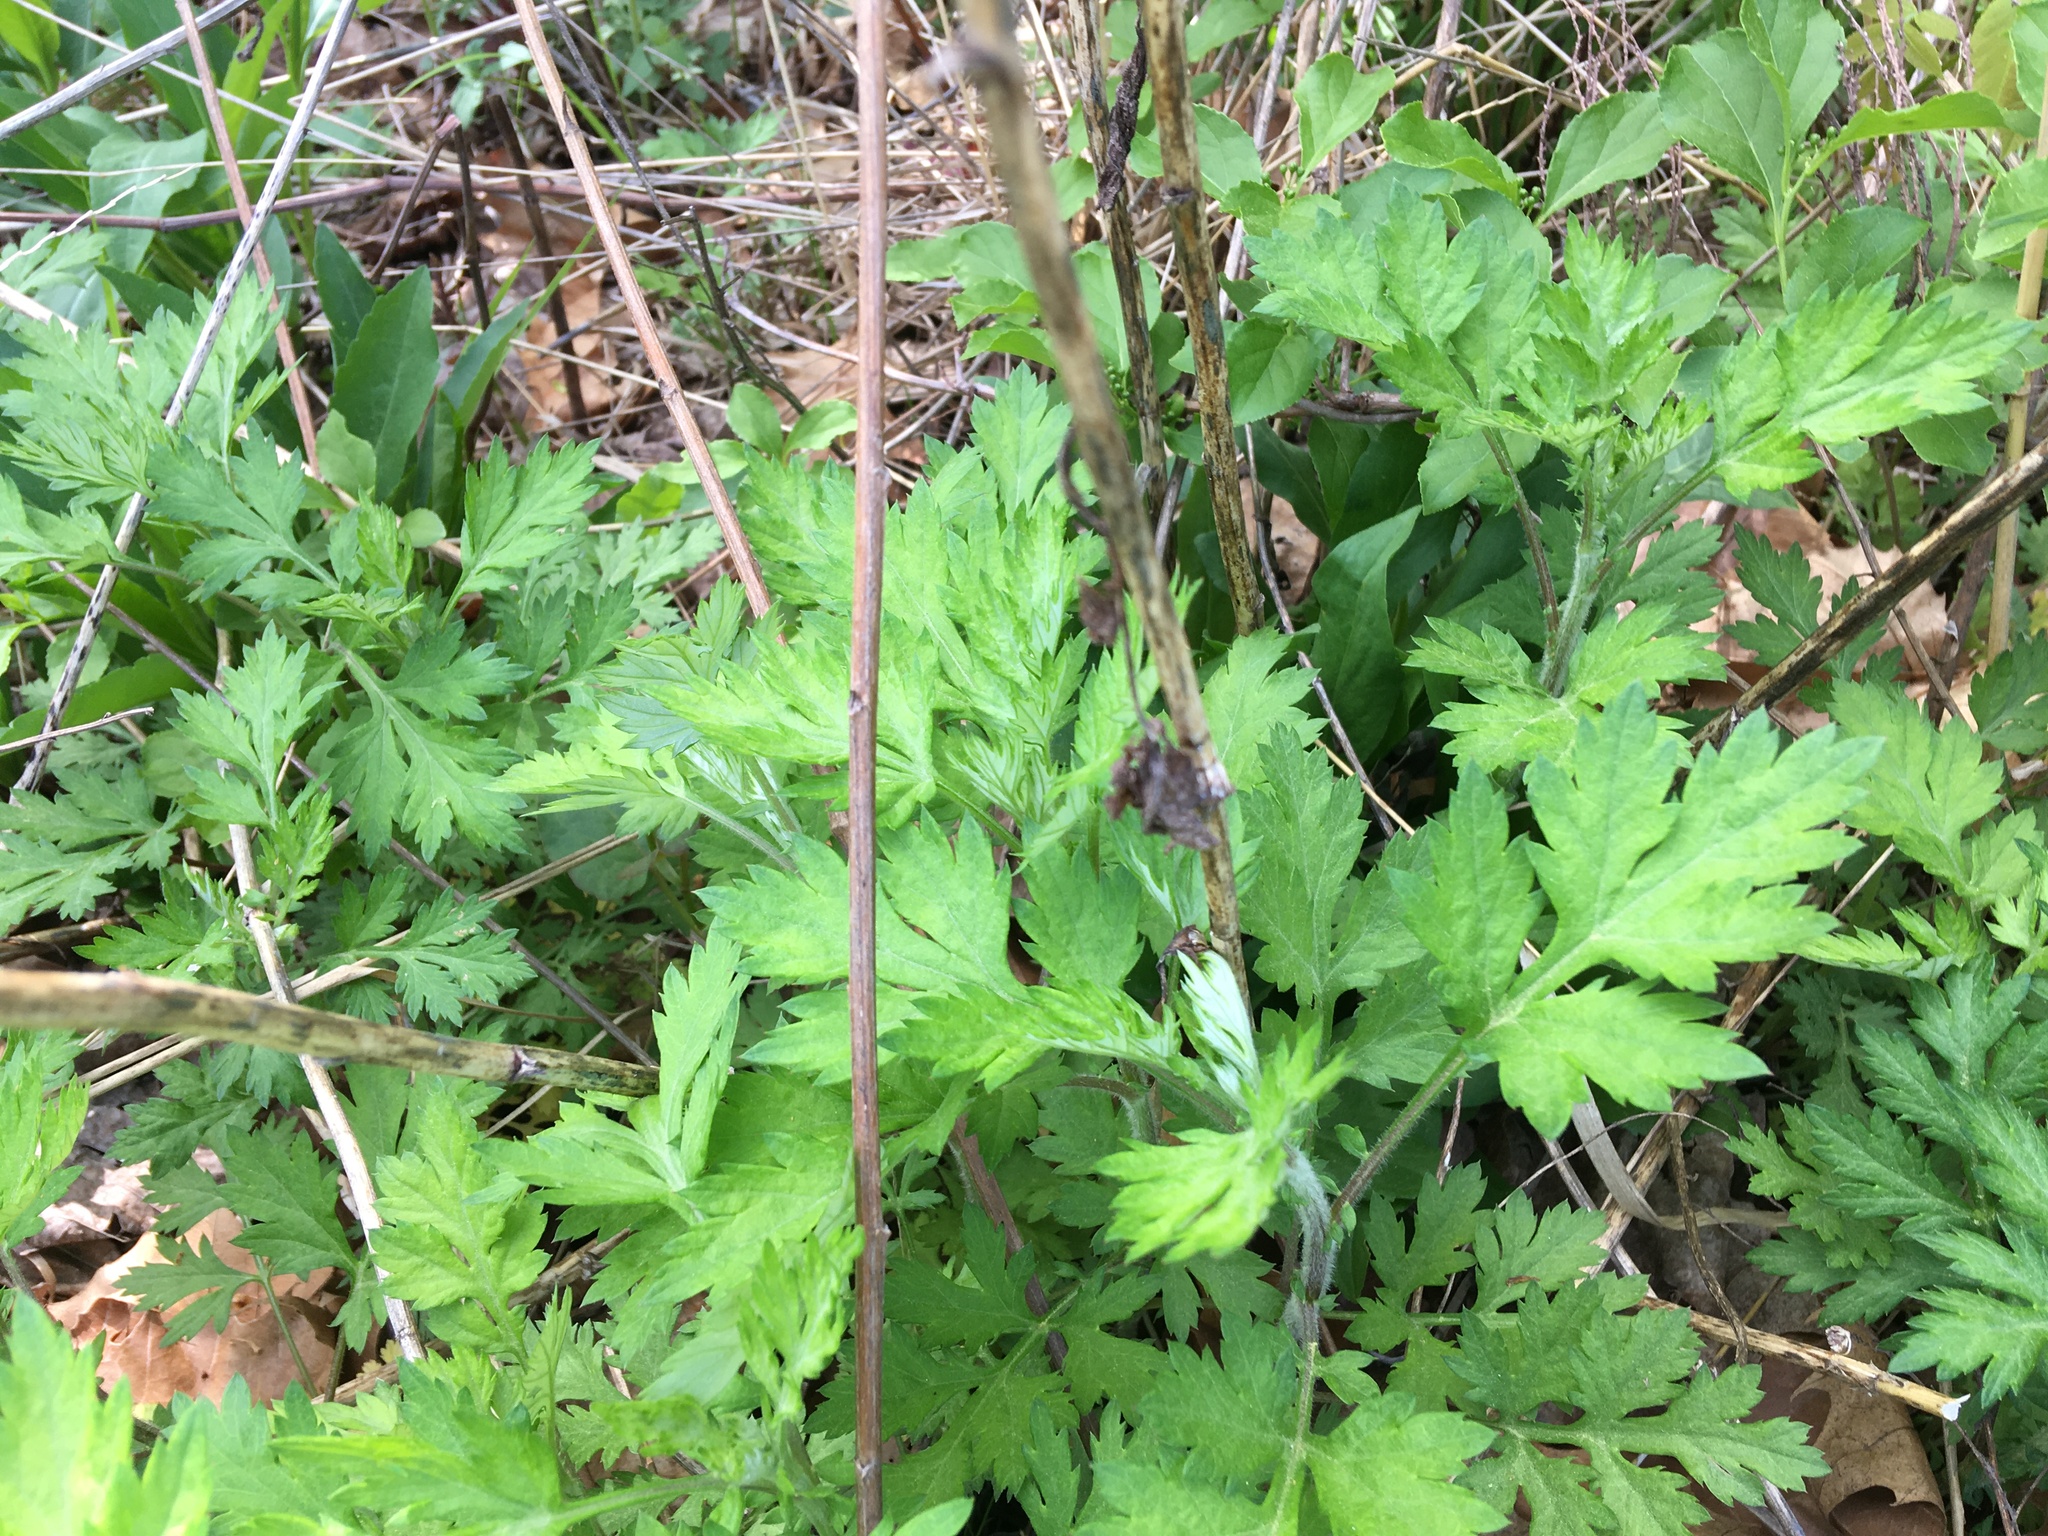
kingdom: Plantae
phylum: Tracheophyta
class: Magnoliopsida
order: Asterales
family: Asteraceae
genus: Artemisia
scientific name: Artemisia vulgaris
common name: Mugwort
